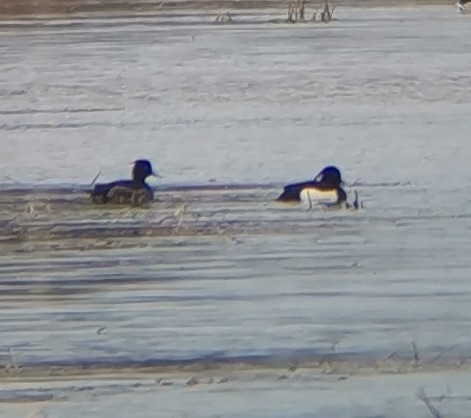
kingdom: Animalia
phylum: Chordata
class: Aves
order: Anseriformes
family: Anatidae
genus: Aythya
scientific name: Aythya fuligula
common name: Tufted duck
